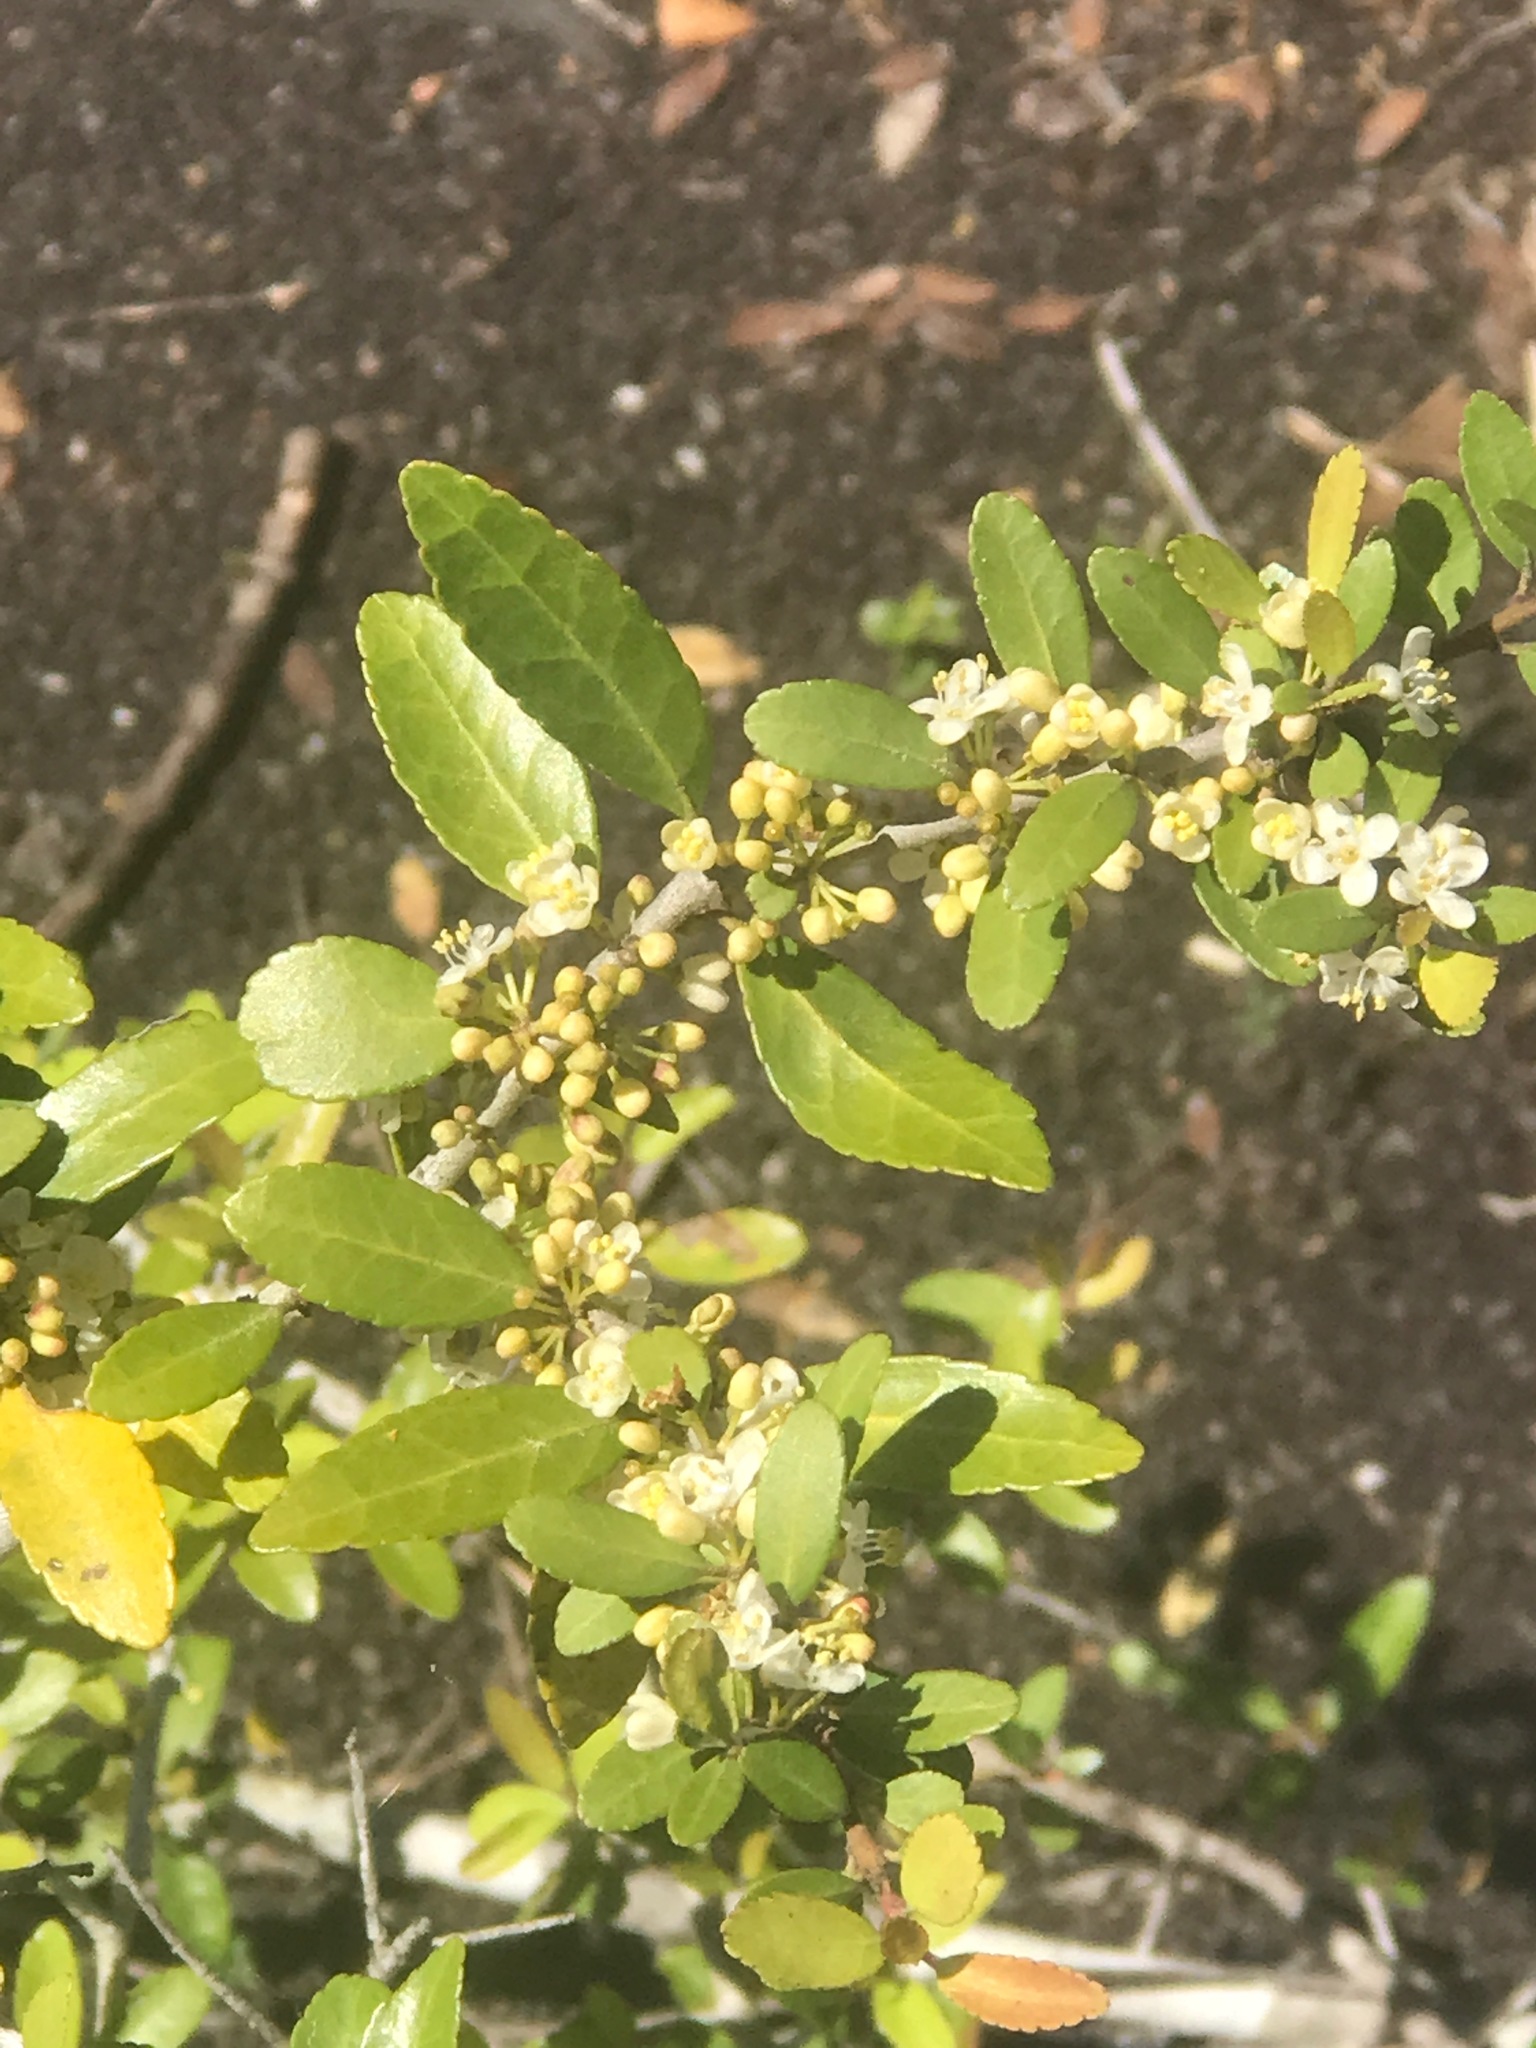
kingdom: Plantae
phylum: Tracheophyta
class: Magnoliopsida
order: Aquifoliales
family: Aquifoliaceae
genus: Ilex
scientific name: Ilex vomitoria
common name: Yaupon holly
